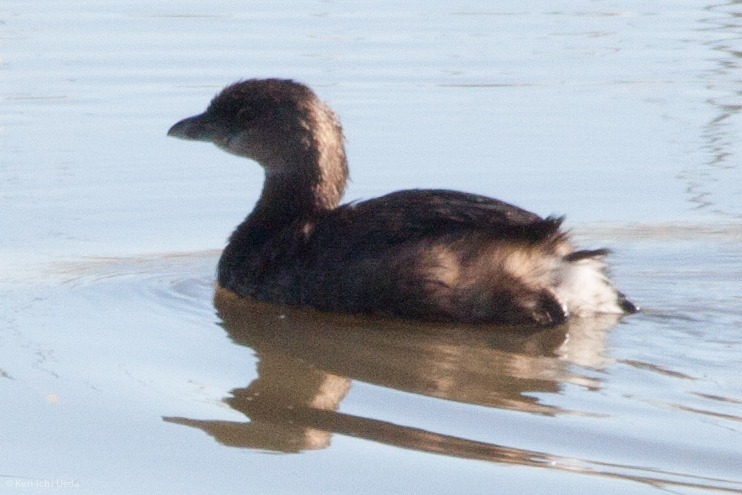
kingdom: Animalia
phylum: Chordata
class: Aves
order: Podicipediformes
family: Podicipedidae
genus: Podilymbus
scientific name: Podilymbus podiceps
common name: Pied-billed grebe
